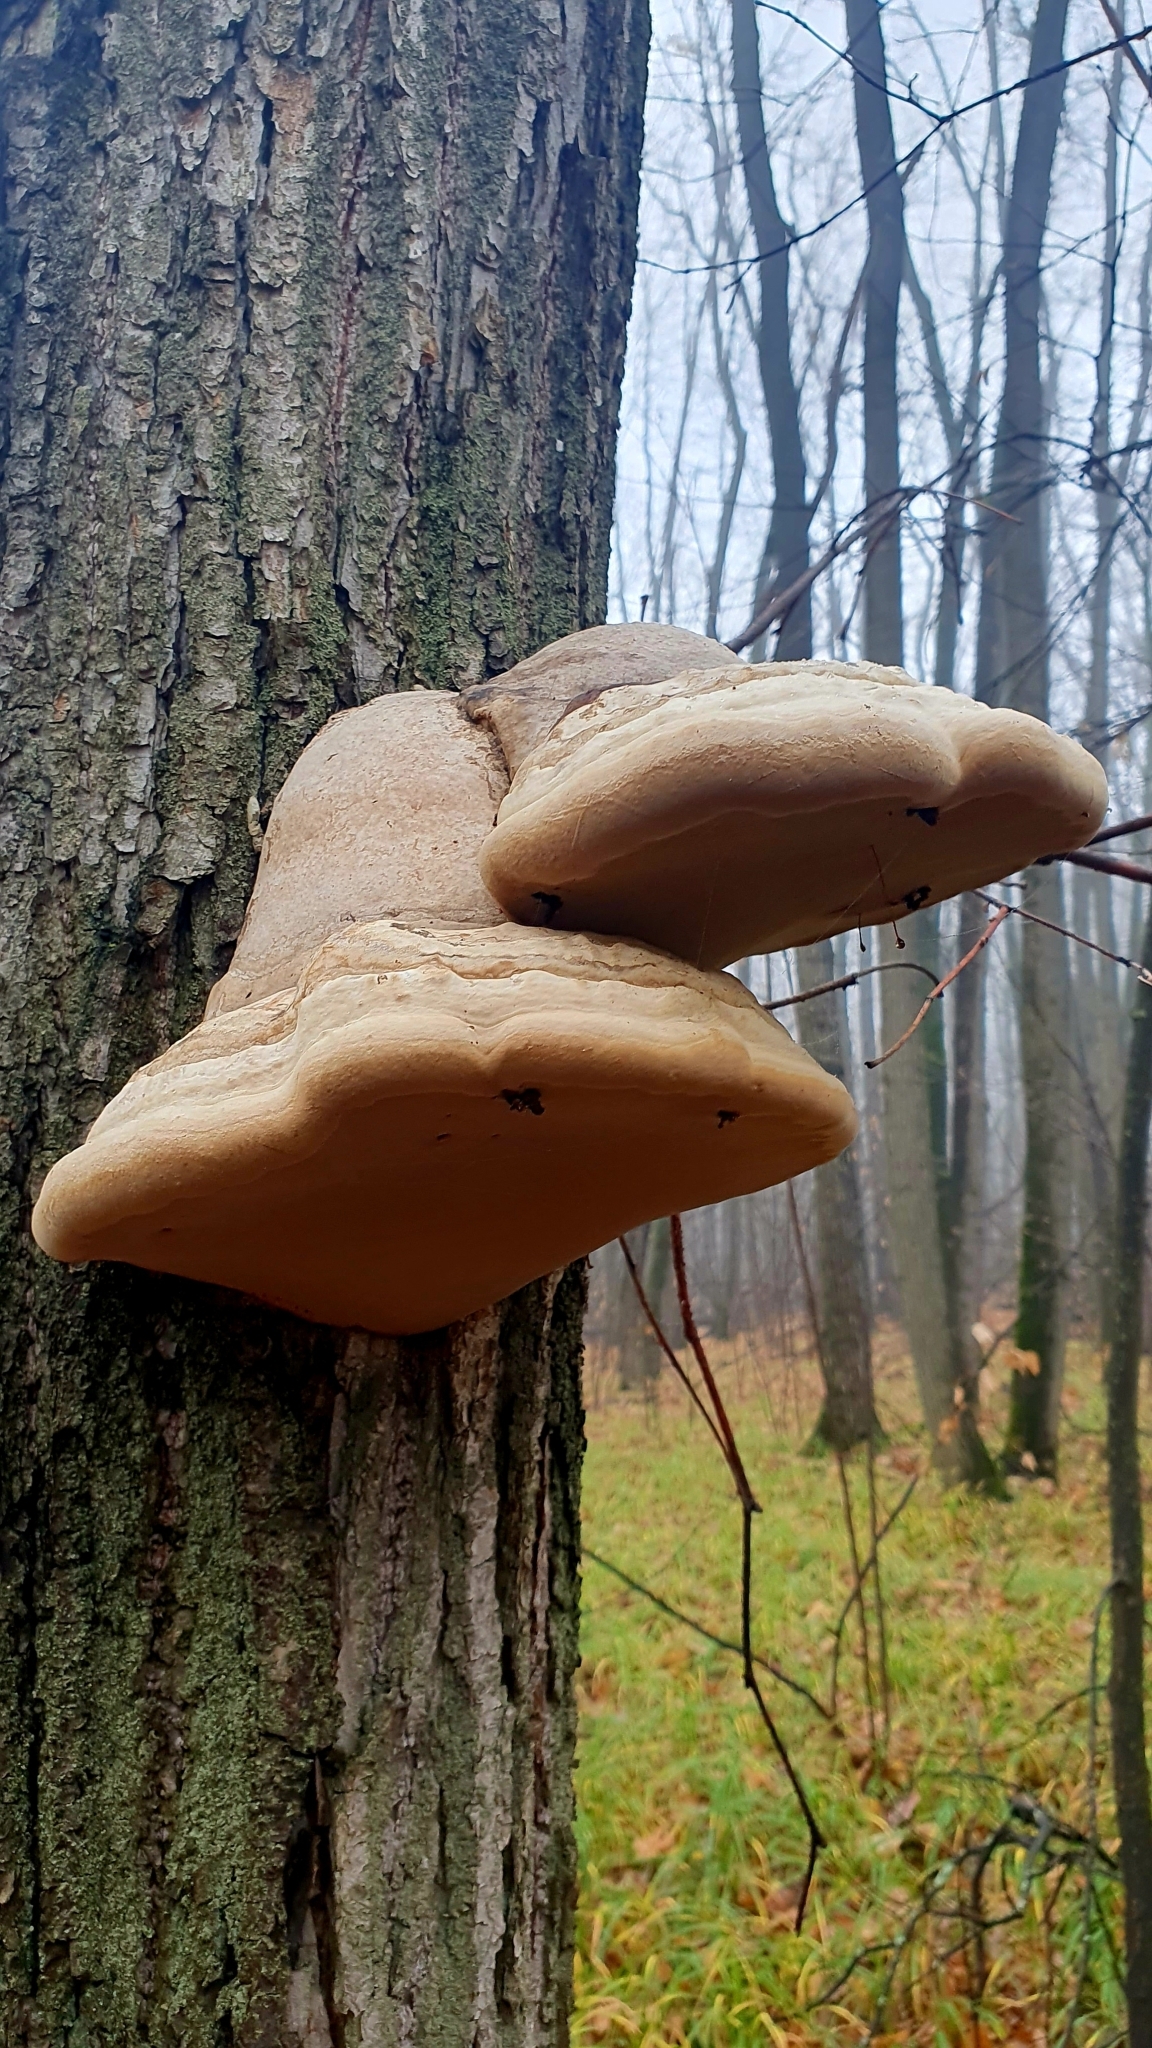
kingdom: Fungi
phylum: Basidiomycota
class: Agaricomycetes
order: Polyporales
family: Polyporaceae
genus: Fomes
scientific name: Fomes fomentarius
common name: Hoof fungus
